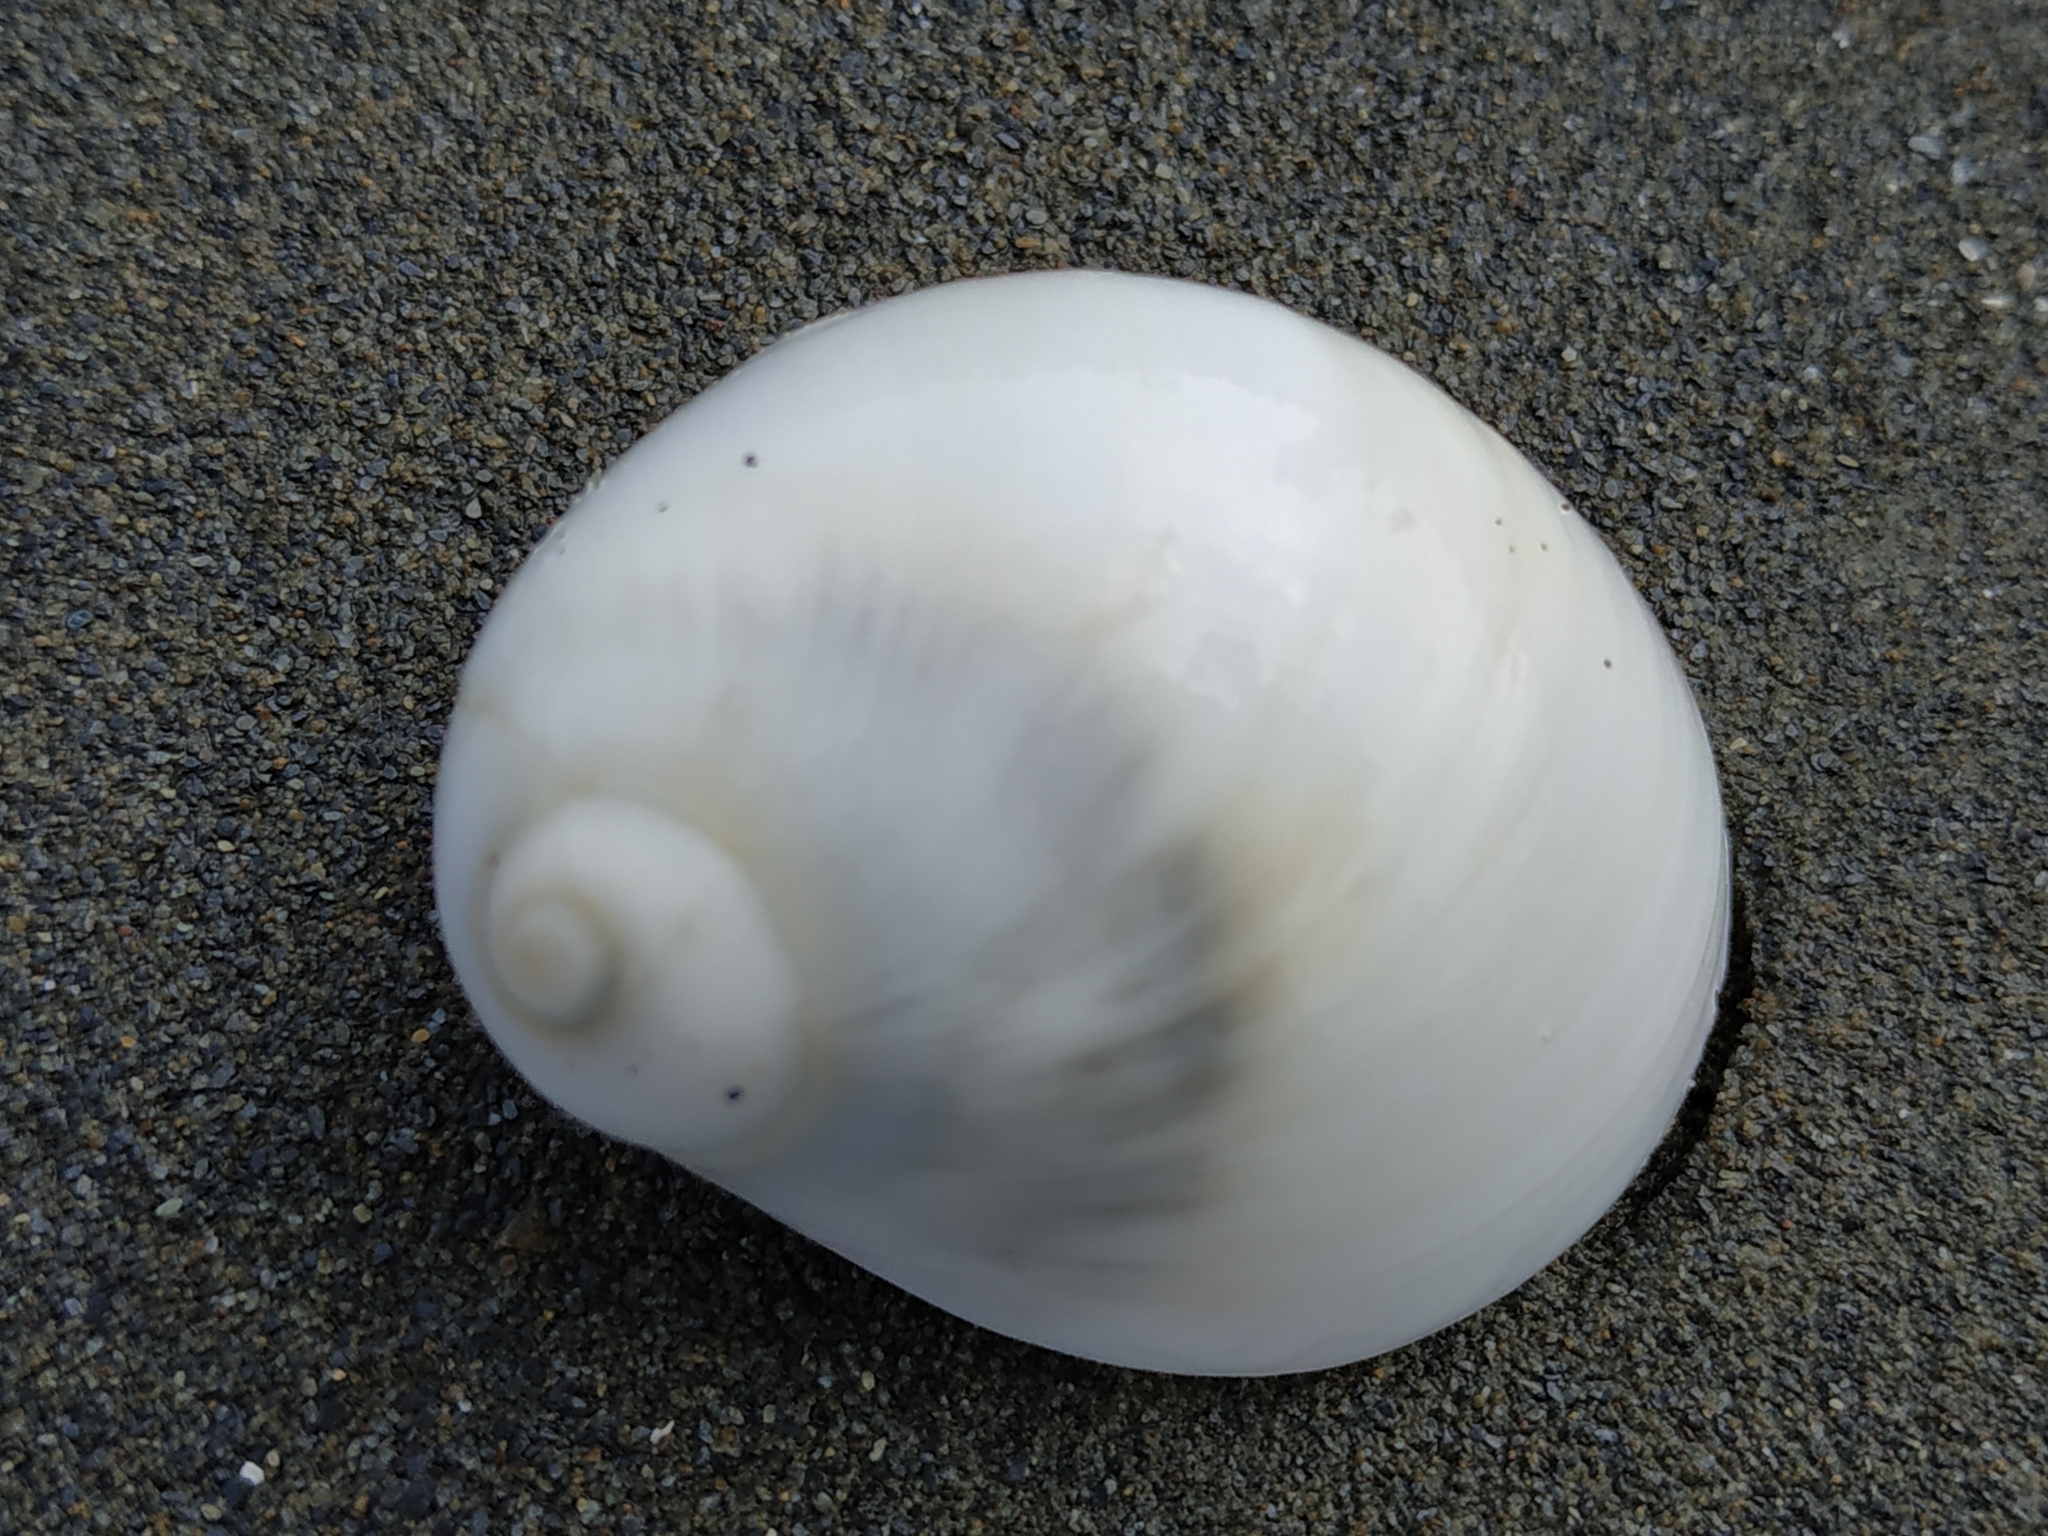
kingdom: Animalia
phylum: Mollusca
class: Gastropoda
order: Littorinimorpha
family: Naticidae
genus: Polinices
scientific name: Polinices mammilla
